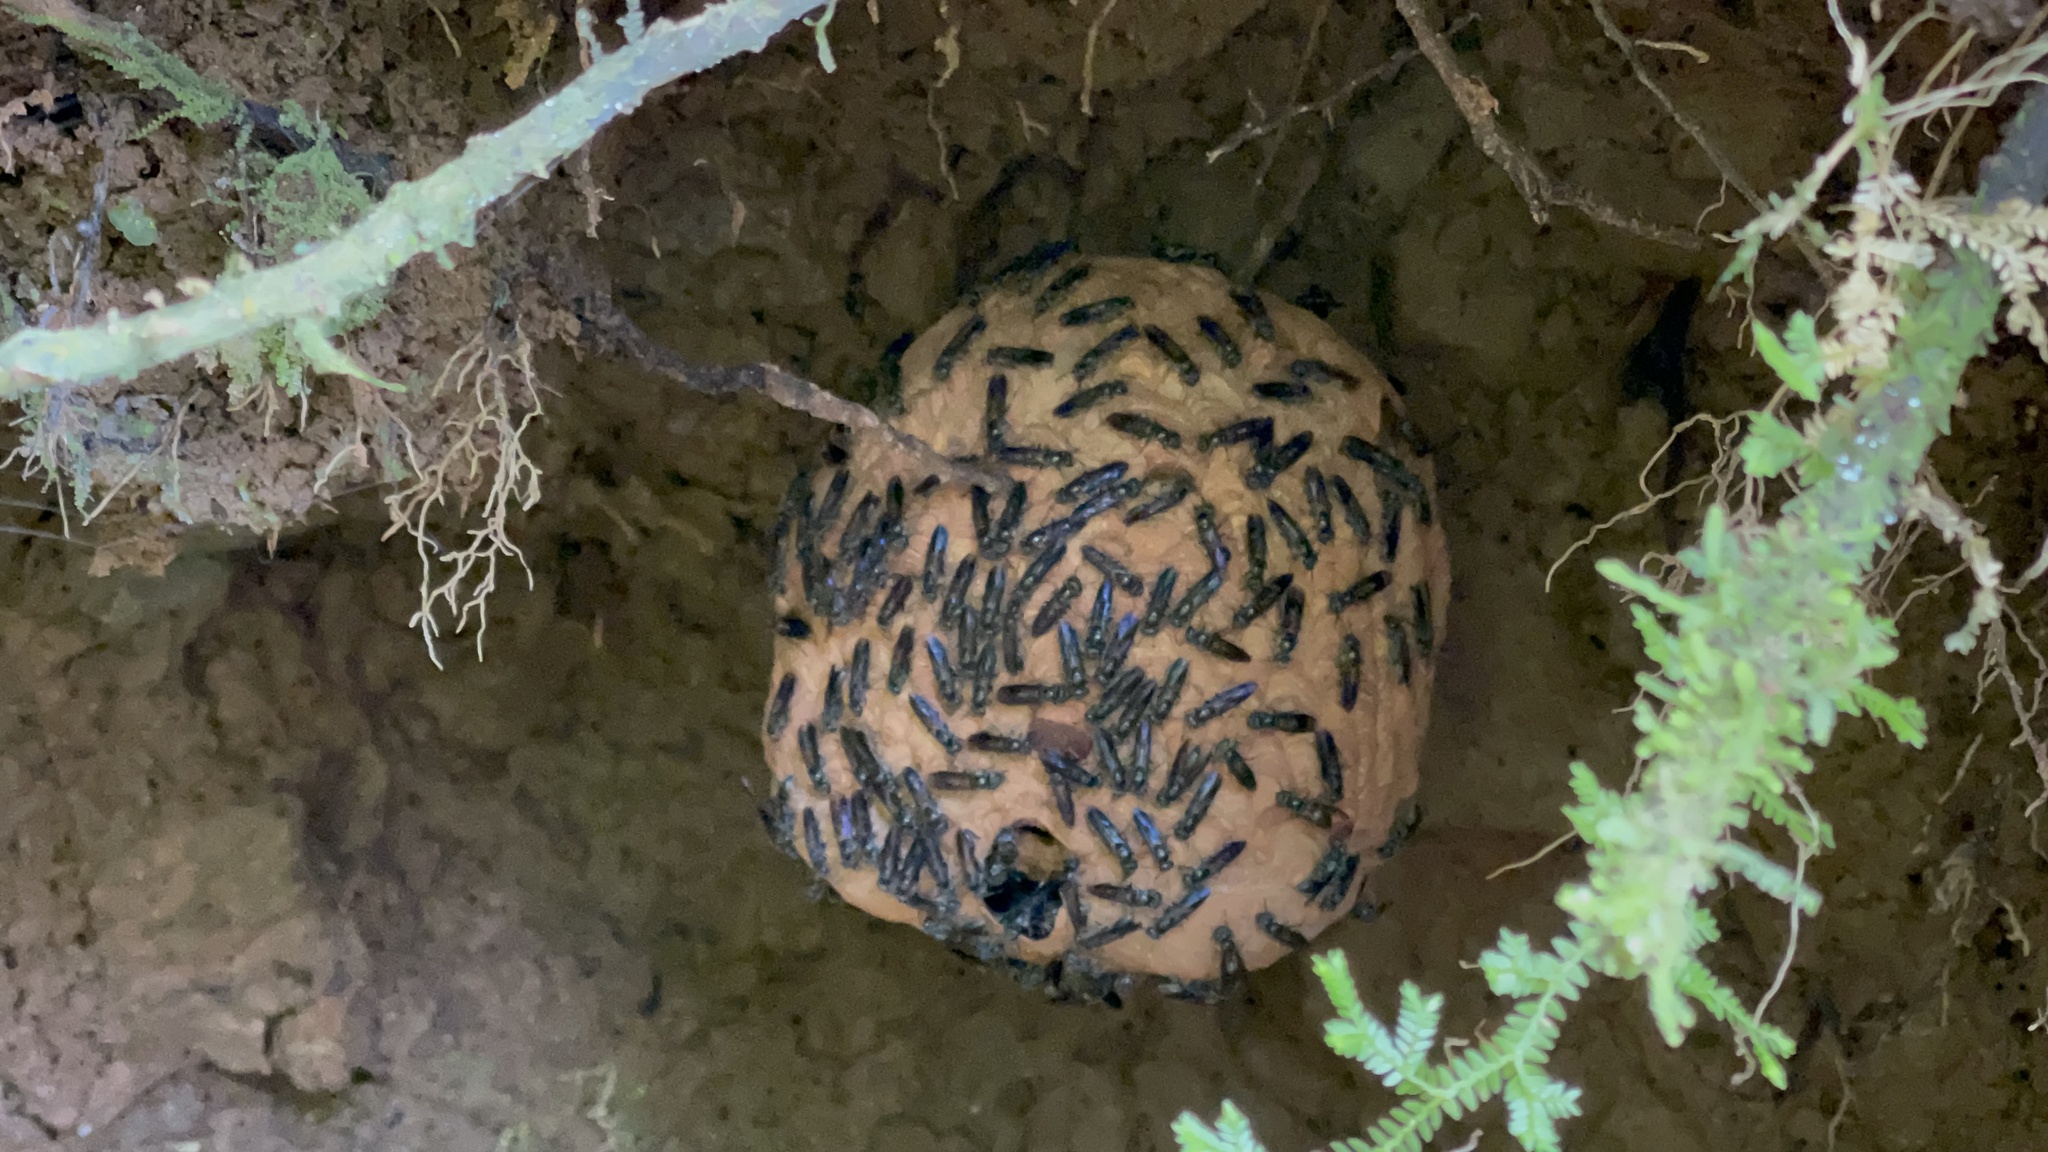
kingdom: Animalia
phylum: Arthropoda
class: Insecta
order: Hymenoptera
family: Eumenidae
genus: Polybia
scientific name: Polybia simillima
